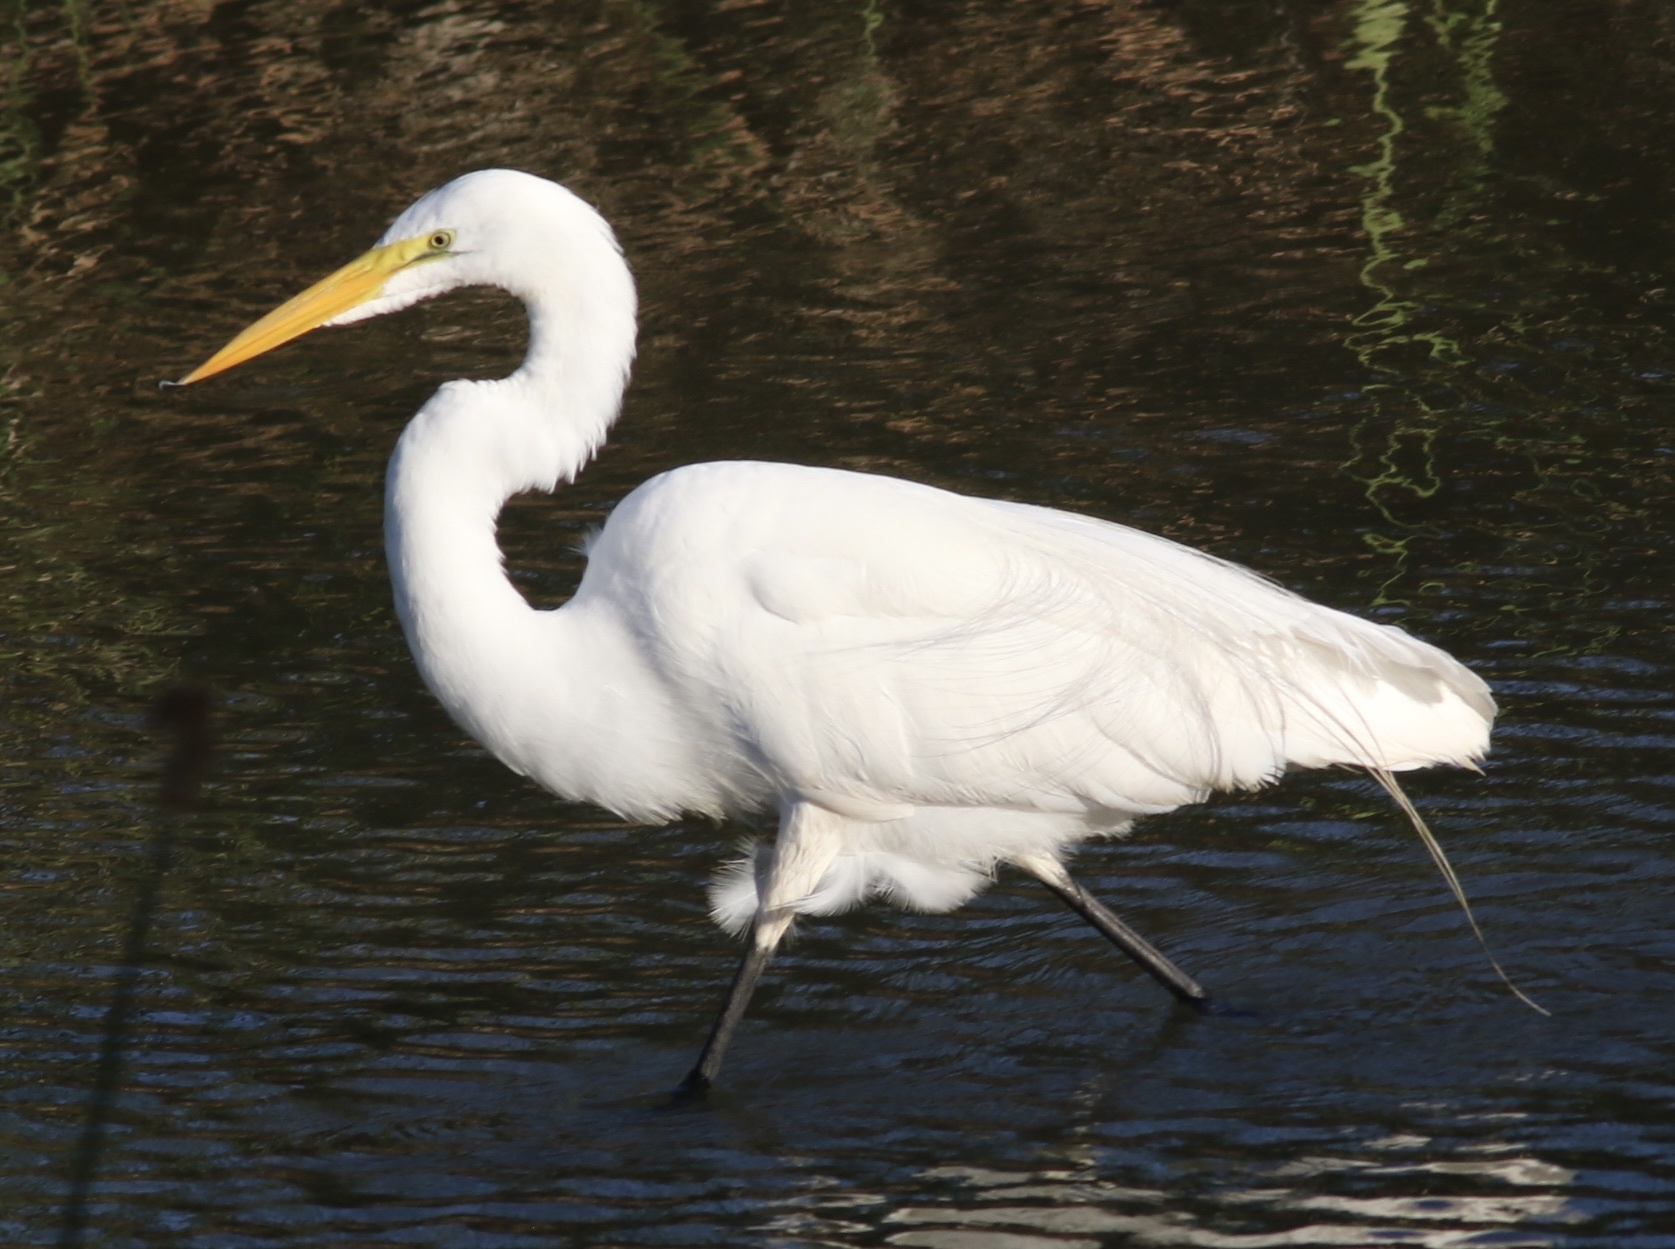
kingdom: Animalia
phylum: Chordata
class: Aves
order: Pelecaniformes
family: Ardeidae
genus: Ardea
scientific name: Ardea alba
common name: Great egret
